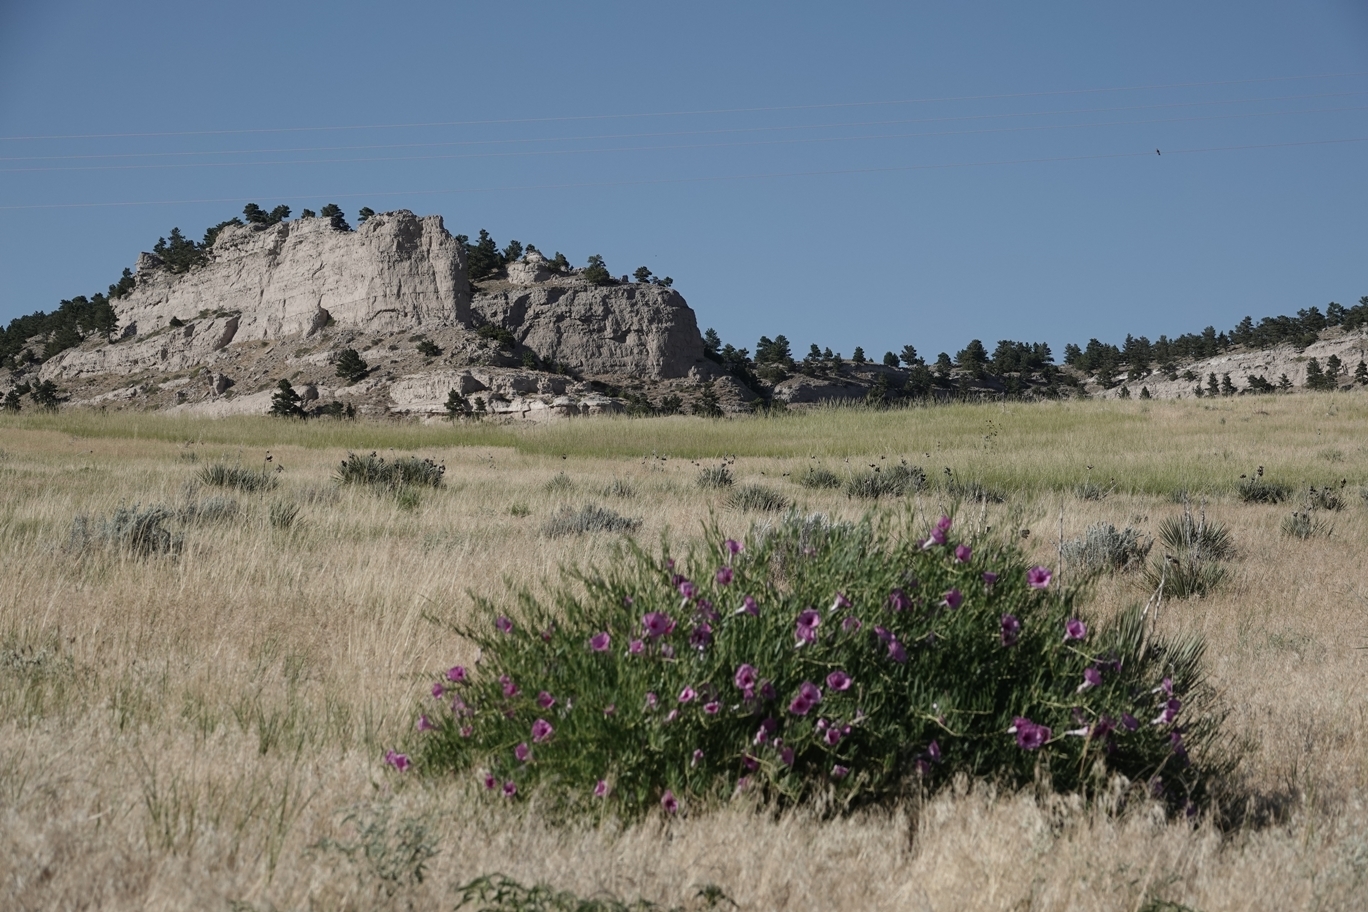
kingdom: Plantae
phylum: Tracheophyta
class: Magnoliopsida
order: Solanales
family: Convolvulaceae
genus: Ipomoea
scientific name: Ipomoea leptophylla
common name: Bush moonflower
